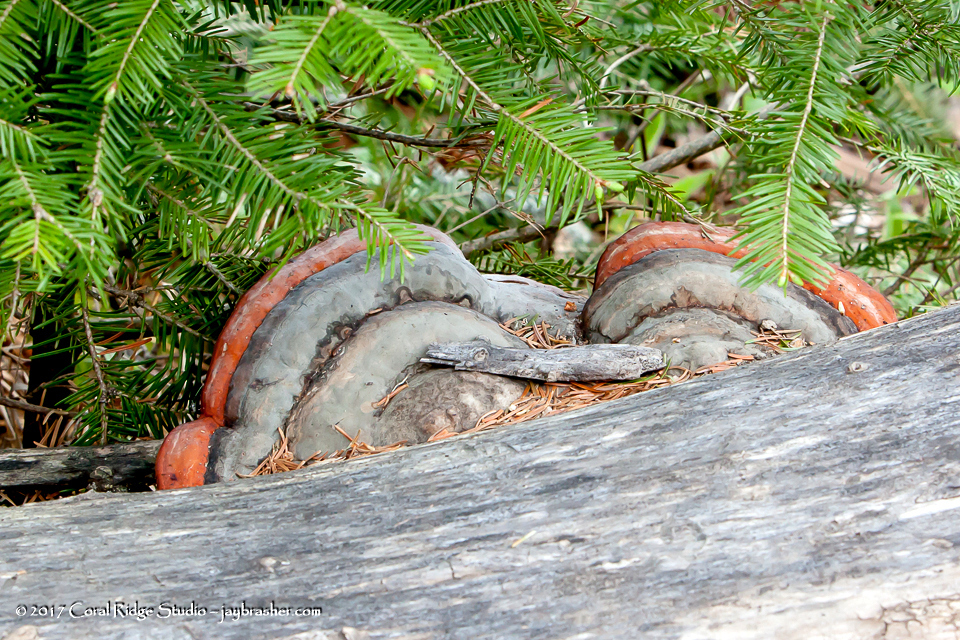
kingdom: Fungi
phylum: Basidiomycota
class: Agaricomycetes
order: Polyporales
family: Fomitopsidaceae
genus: Fomitopsis
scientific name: Fomitopsis mounceae
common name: Northern red belt
